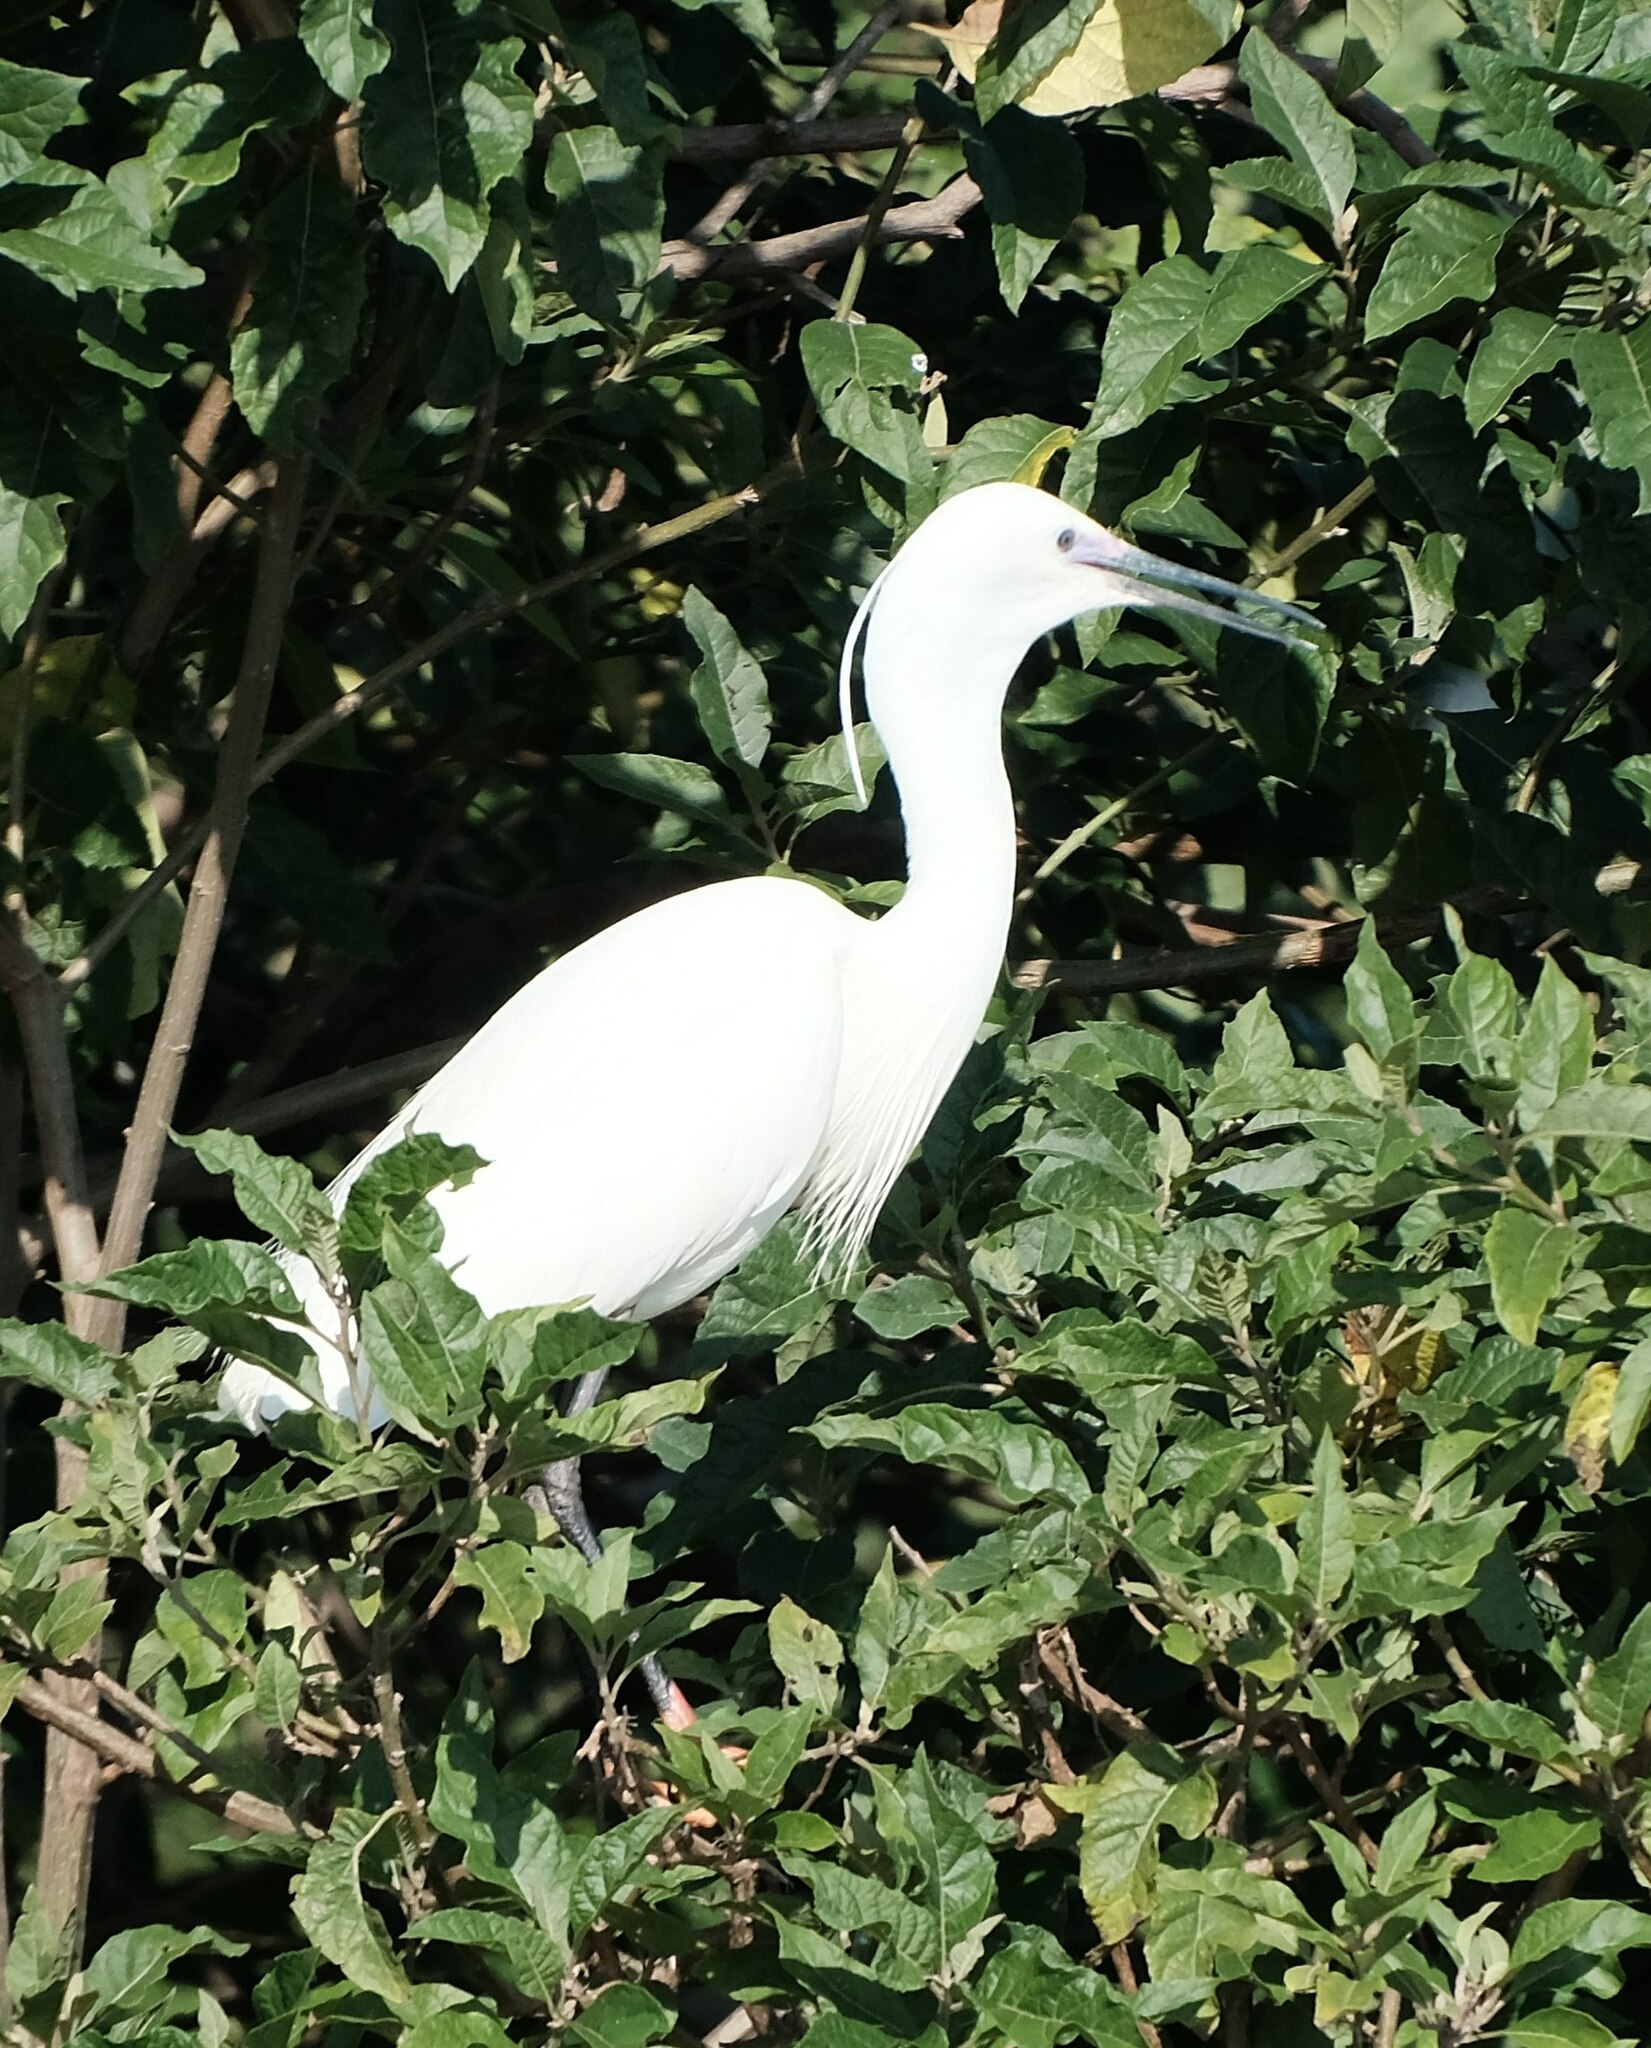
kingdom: Animalia
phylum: Chordata
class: Aves
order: Pelecaniformes
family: Ardeidae
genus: Egretta
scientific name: Egretta garzetta
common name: Little egret
